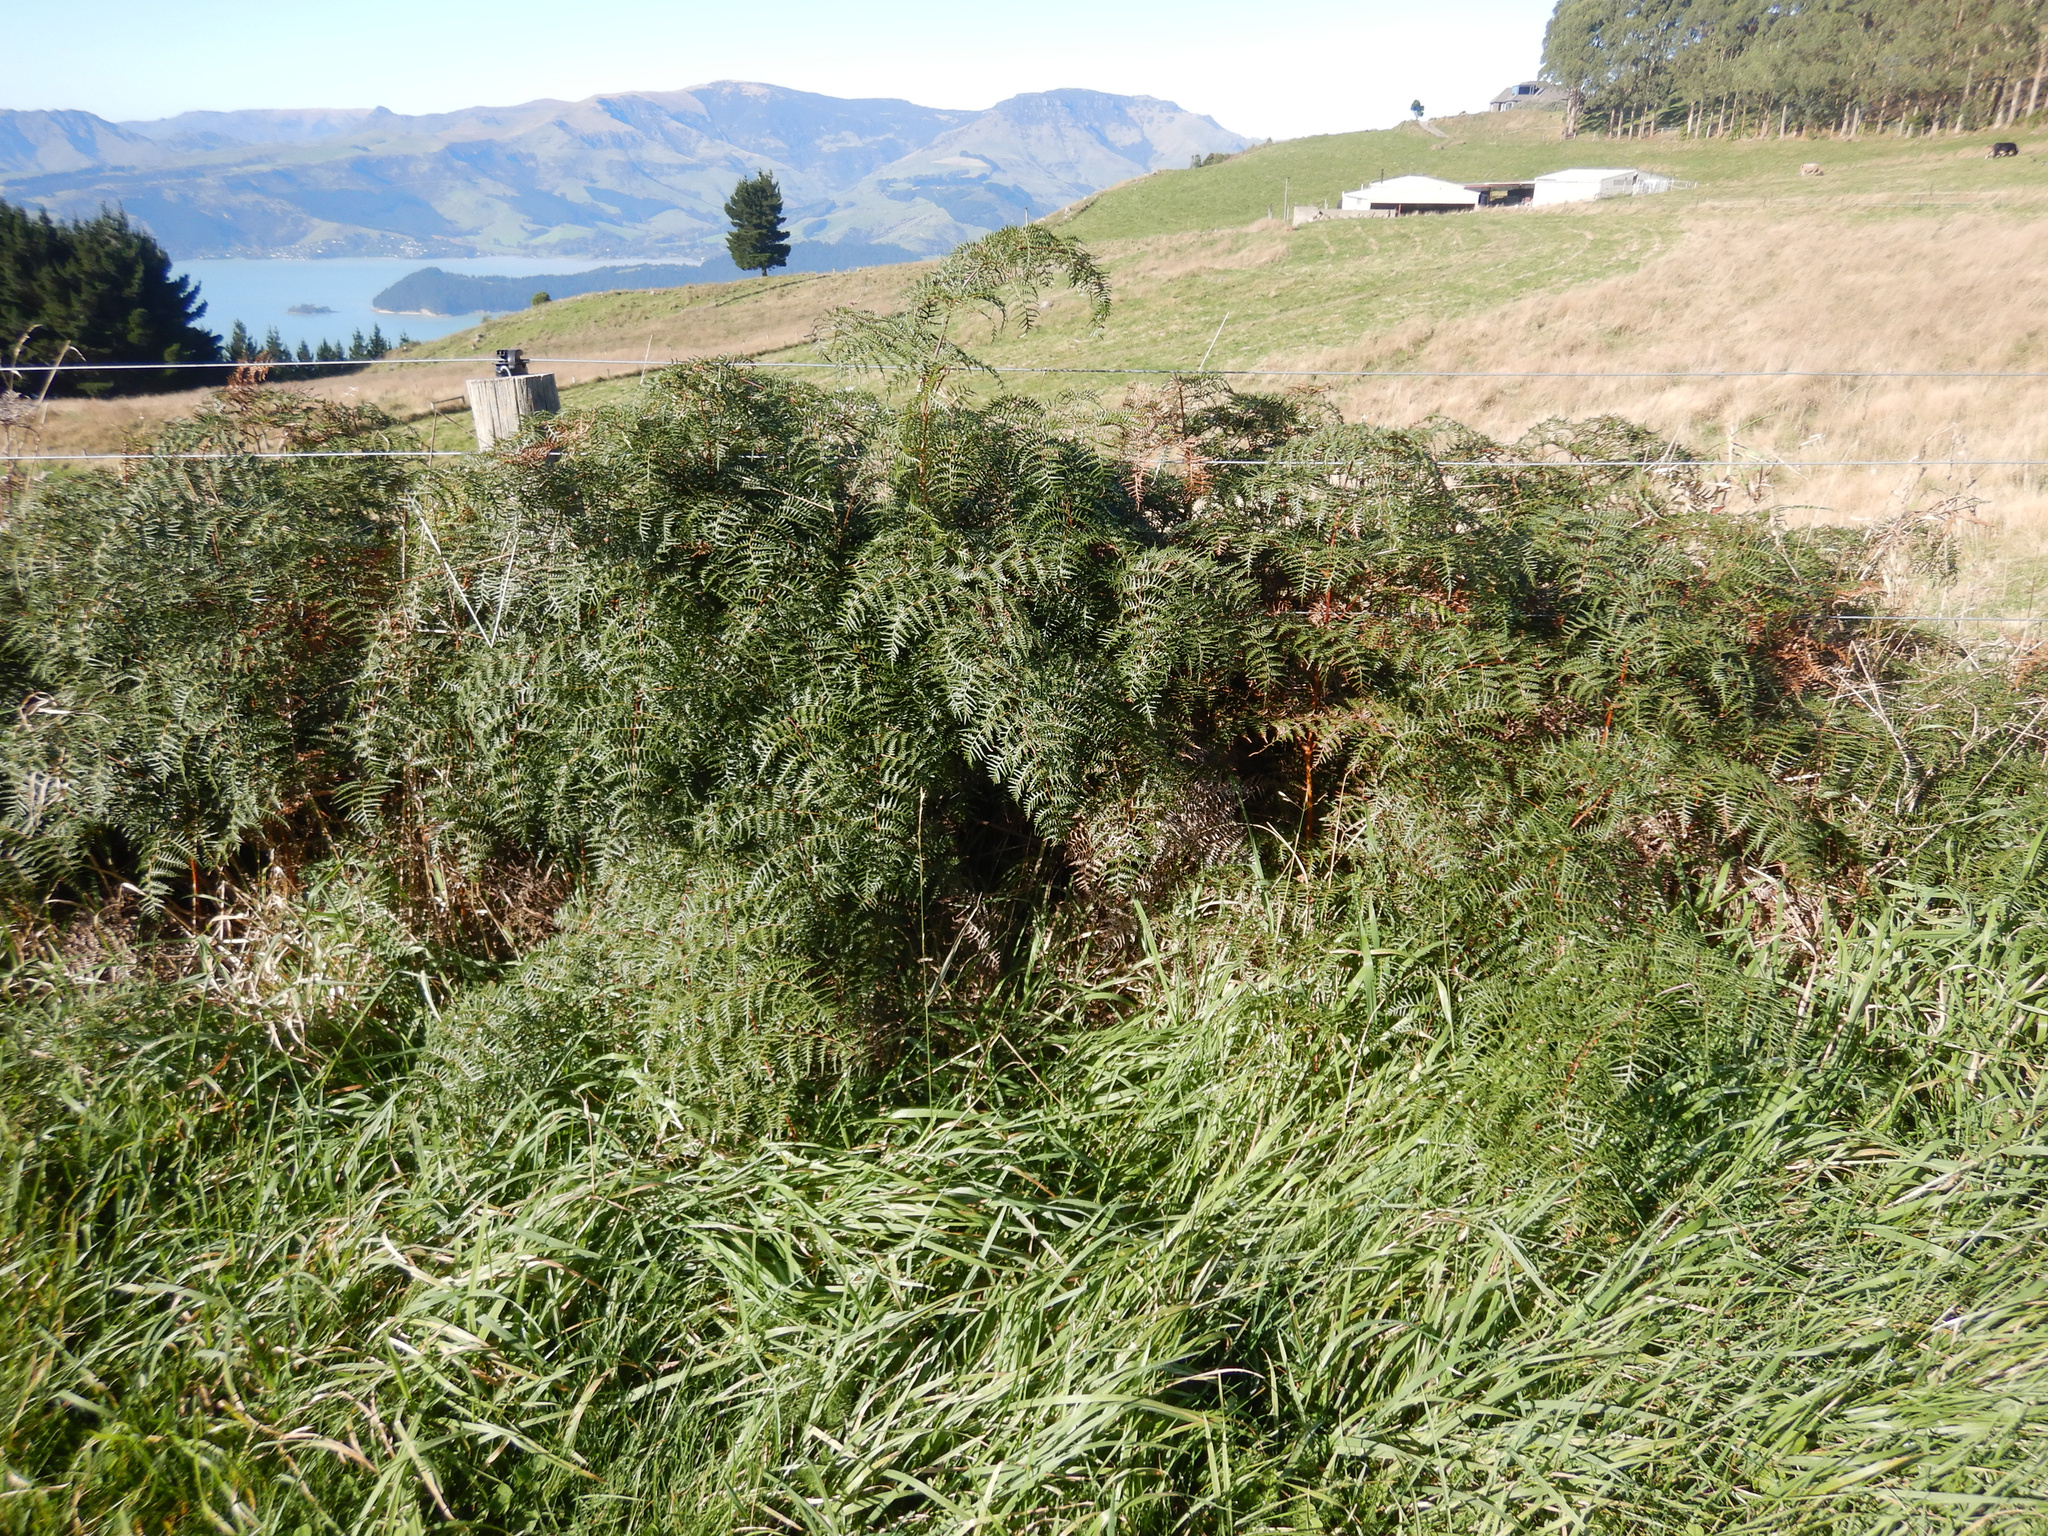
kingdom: Plantae
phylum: Tracheophyta
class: Polypodiopsida
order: Polypodiales
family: Dennstaedtiaceae
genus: Pteridium
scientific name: Pteridium esculentum
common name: Bracken fern
